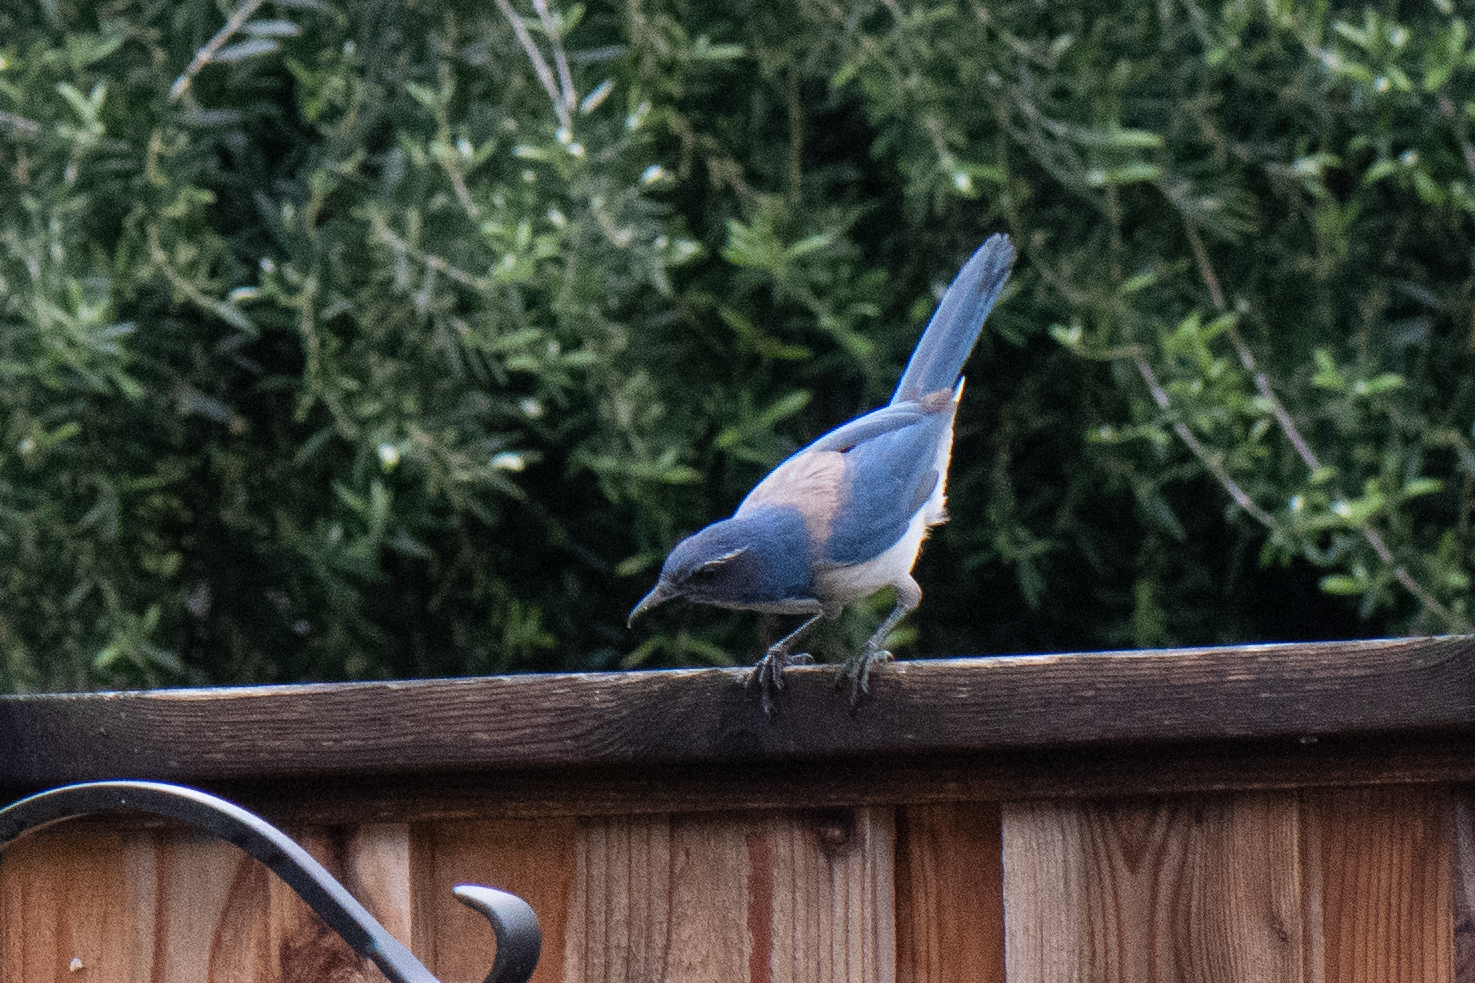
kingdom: Animalia
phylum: Chordata
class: Aves
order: Passeriformes
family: Corvidae
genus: Aphelocoma
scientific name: Aphelocoma californica
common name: California scrub-jay
